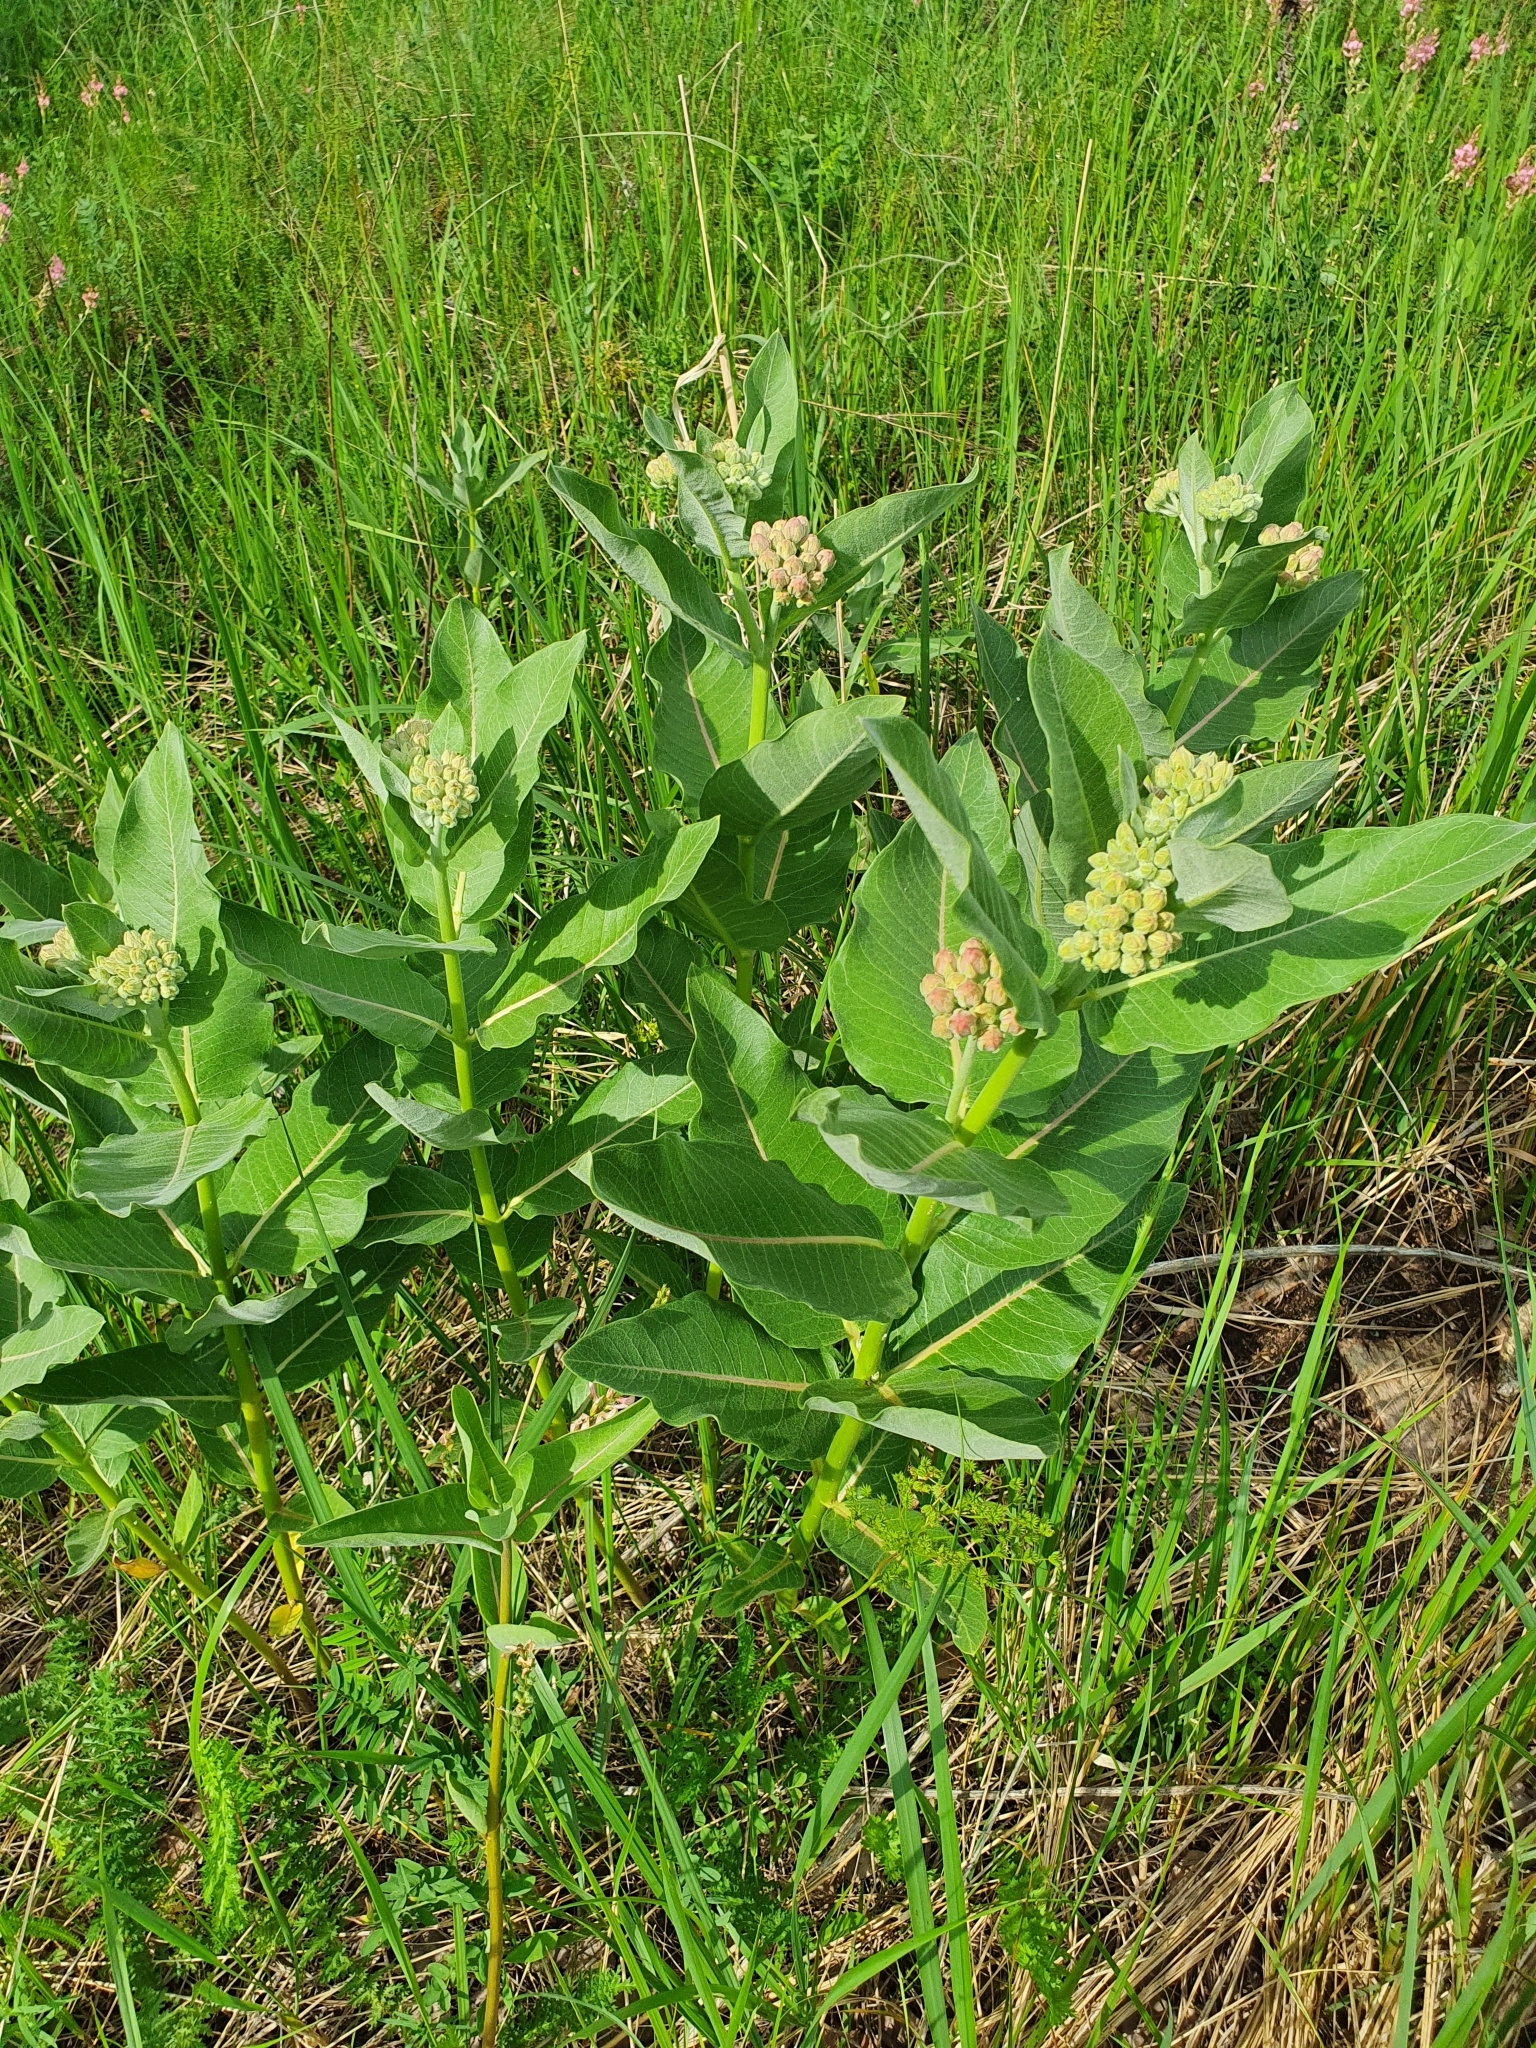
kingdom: Plantae
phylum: Tracheophyta
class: Magnoliopsida
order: Gentianales
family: Apocynaceae
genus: Asclepias
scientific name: Asclepias syriaca
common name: Common milkweed
